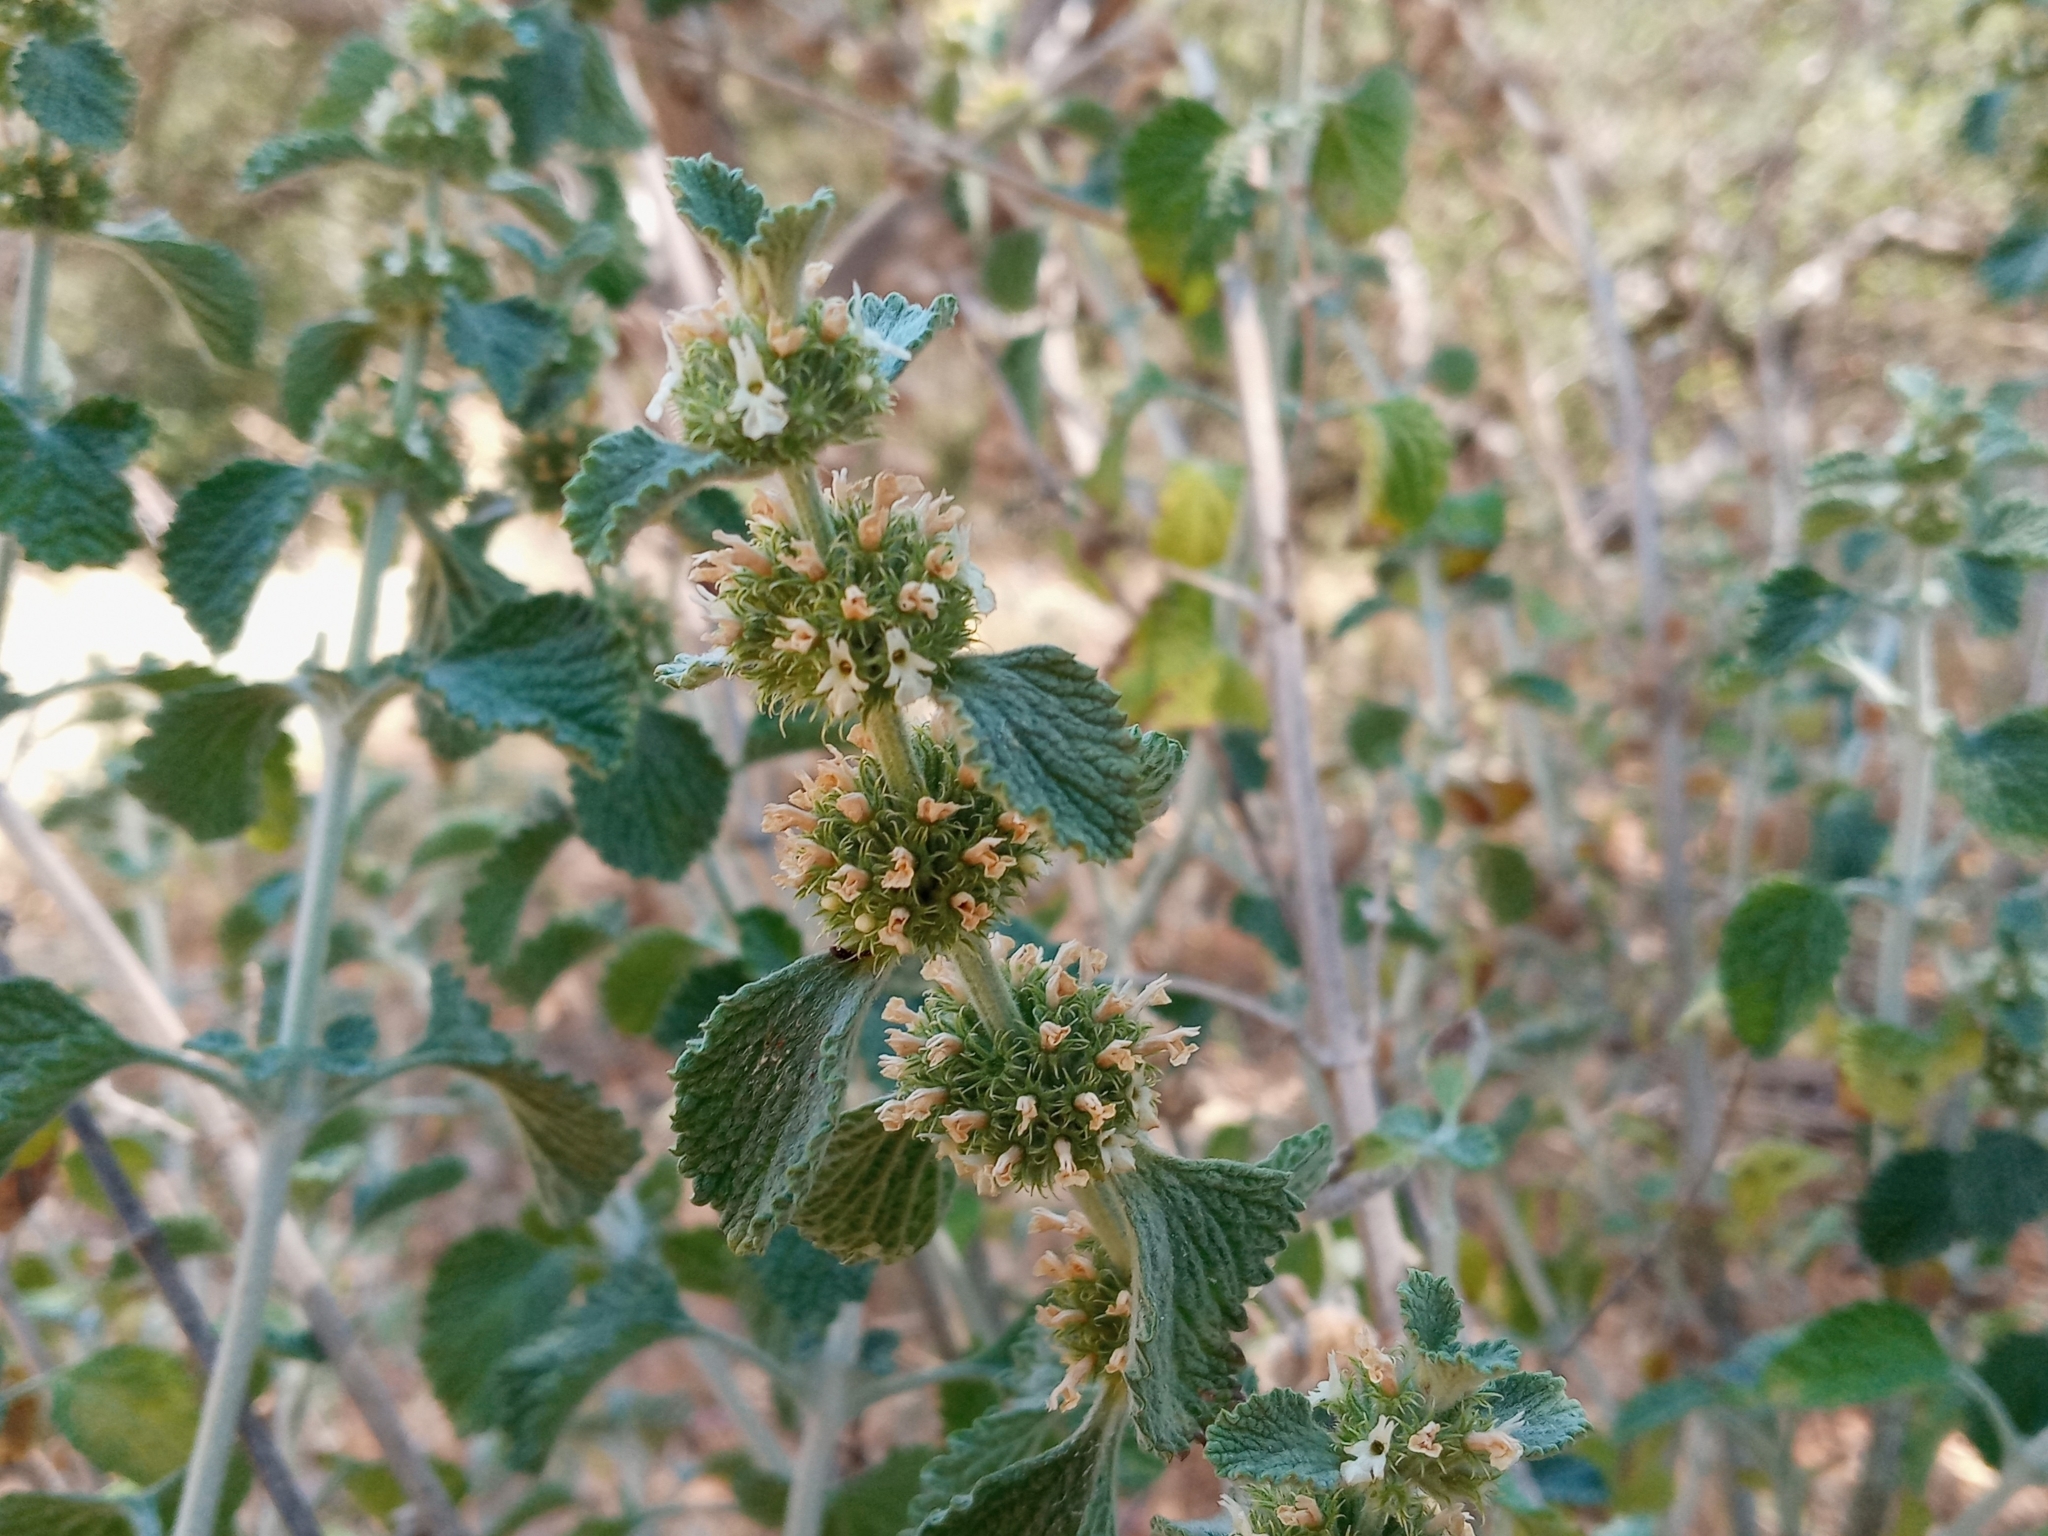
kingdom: Plantae
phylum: Tracheophyta
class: Magnoliopsida
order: Lamiales
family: Lamiaceae
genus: Marrubium
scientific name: Marrubium vulgare
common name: Horehound
